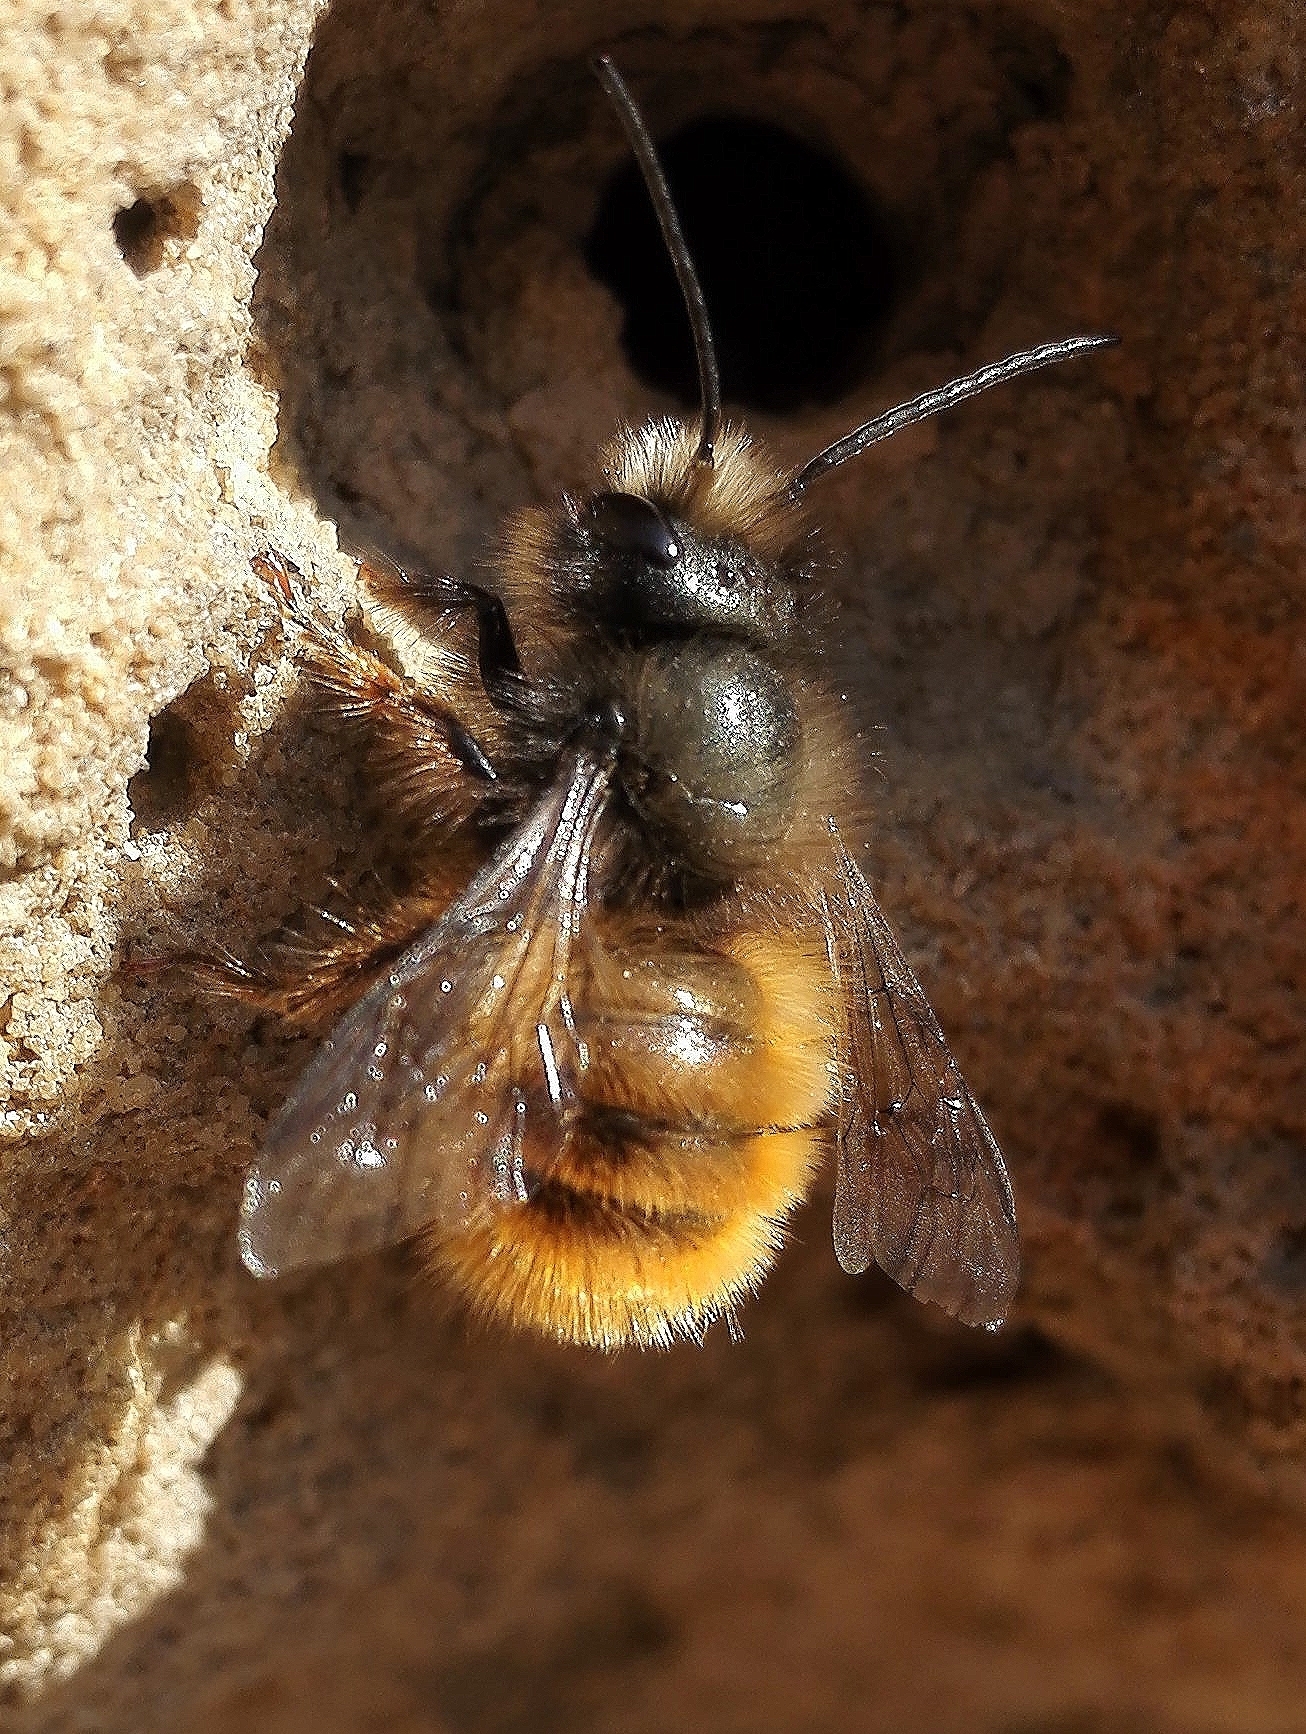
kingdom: Animalia
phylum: Arthropoda
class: Insecta
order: Hymenoptera
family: Megachilidae
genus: Osmia
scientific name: Osmia cornuta
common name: Mason bee
